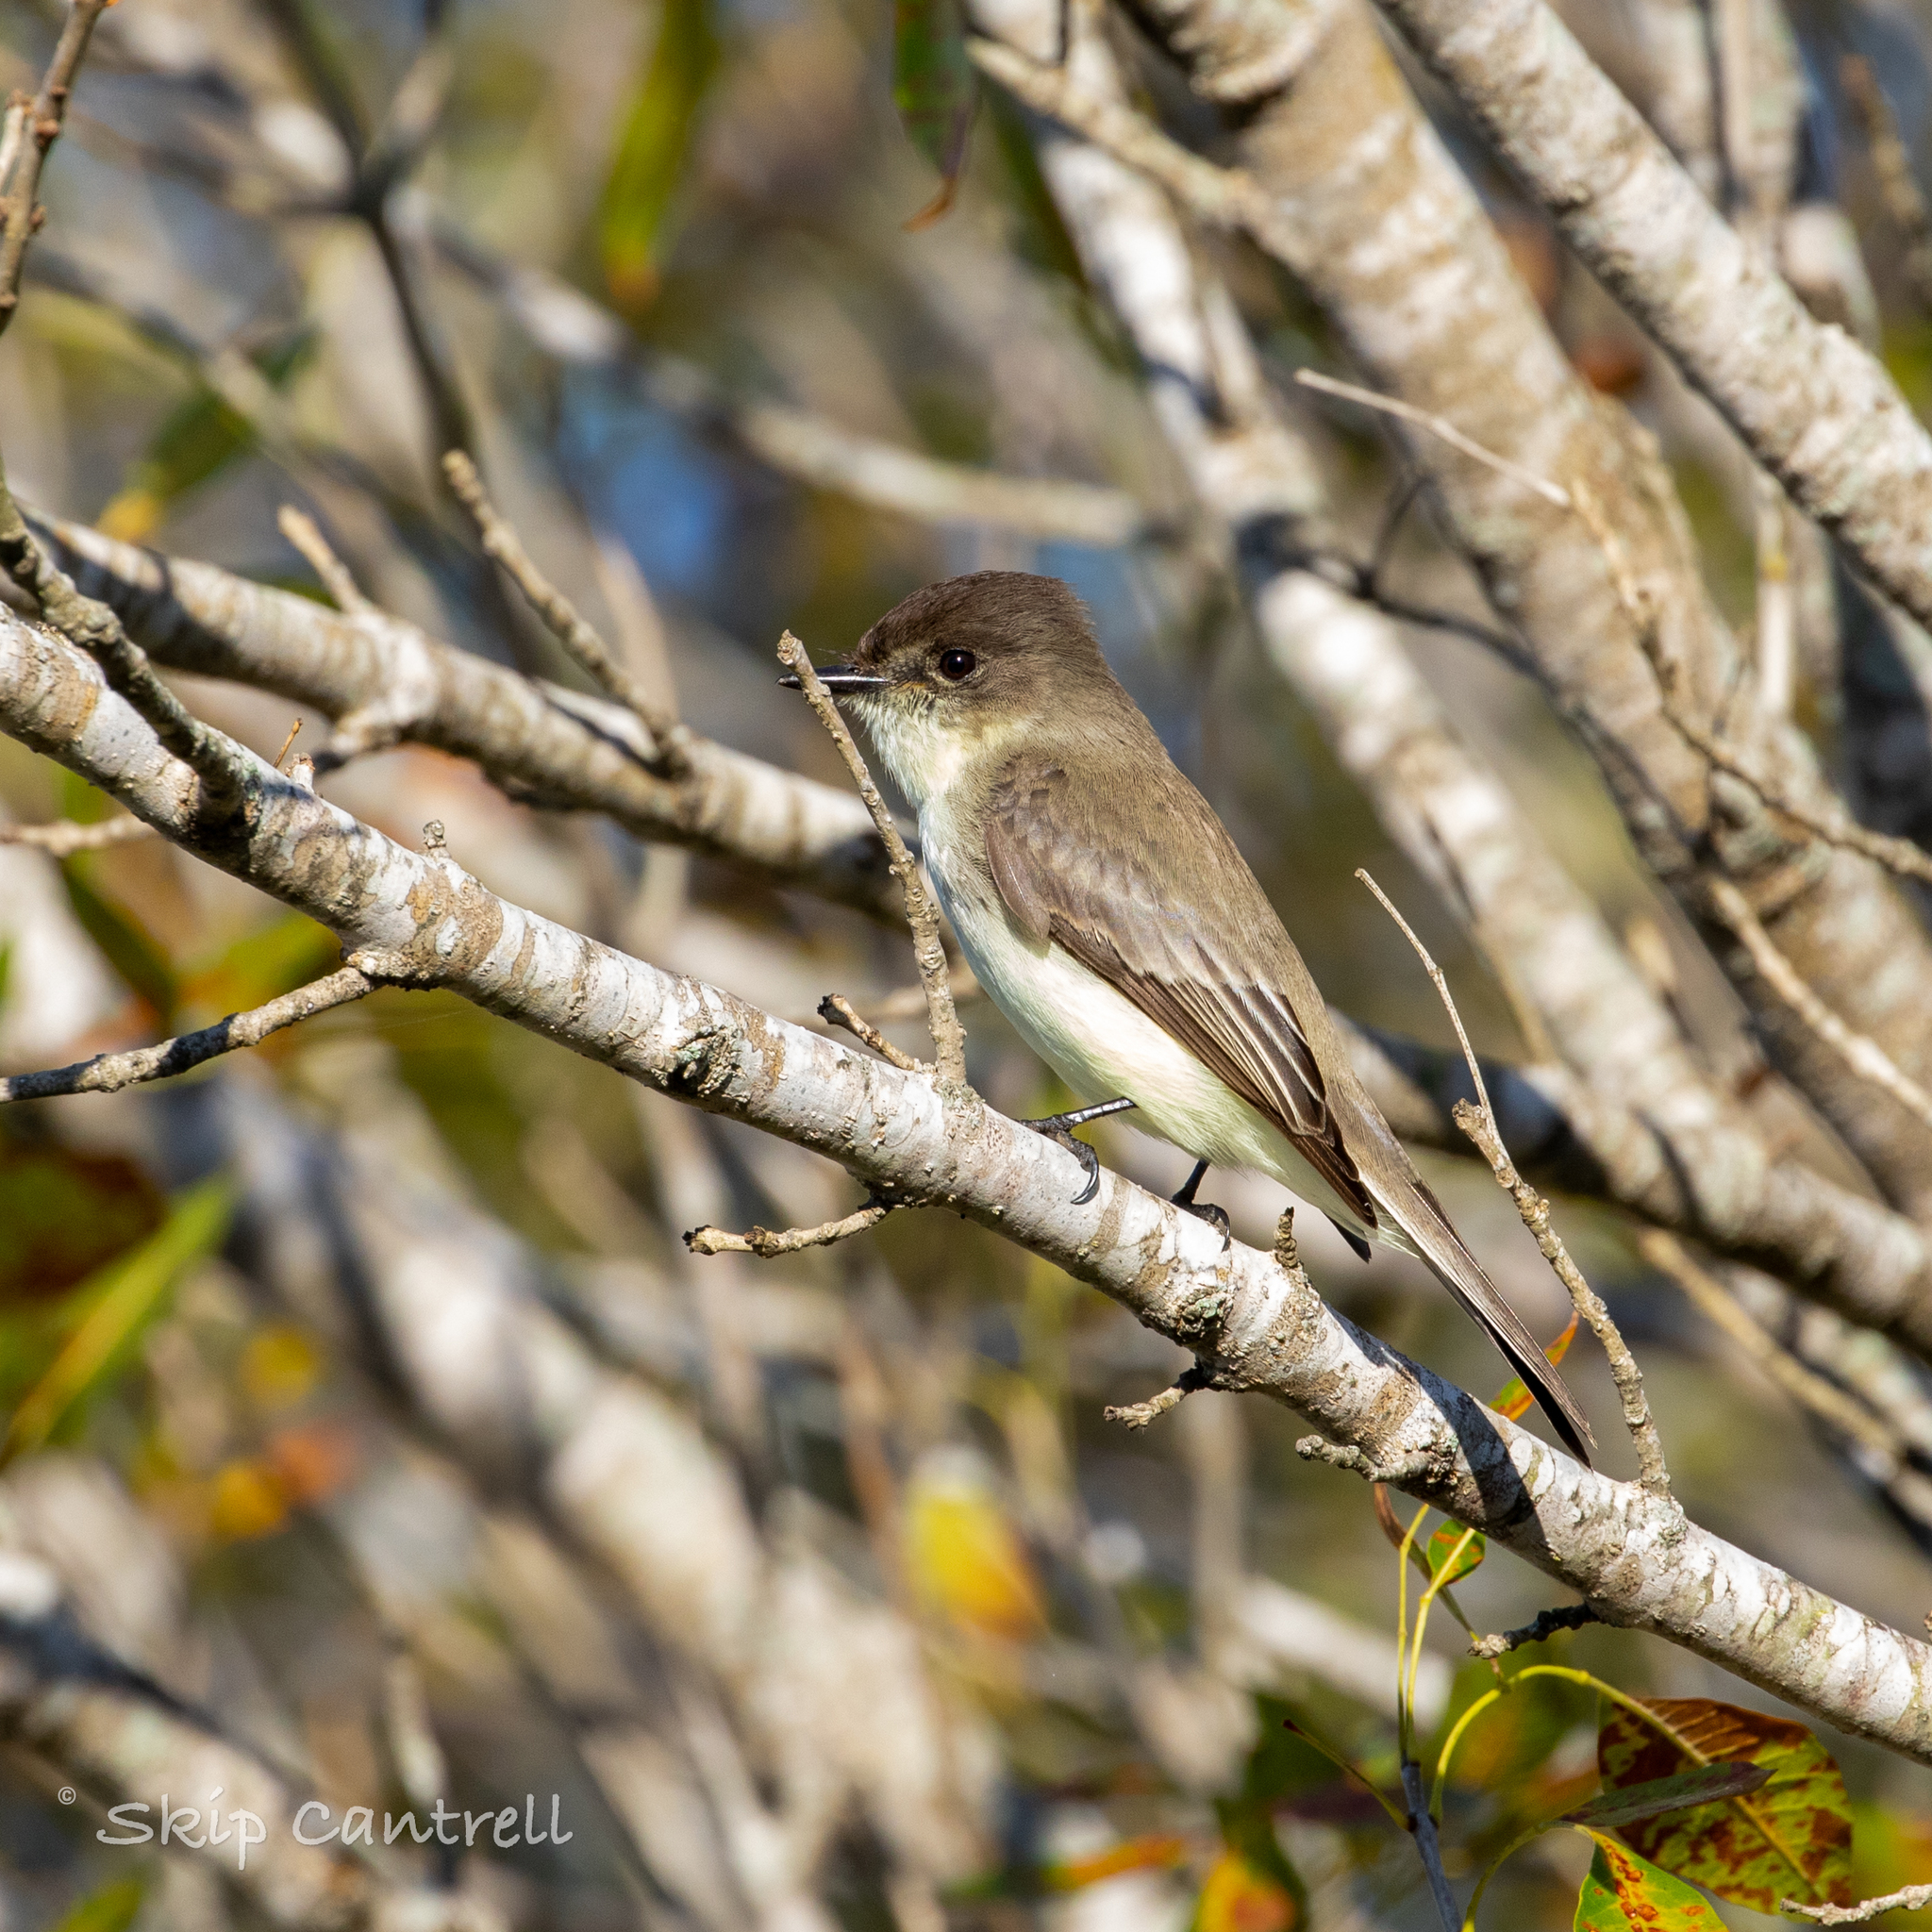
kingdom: Animalia
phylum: Chordata
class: Aves
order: Passeriformes
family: Tyrannidae
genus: Sayornis
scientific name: Sayornis phoebe
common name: Eastern phoebe
